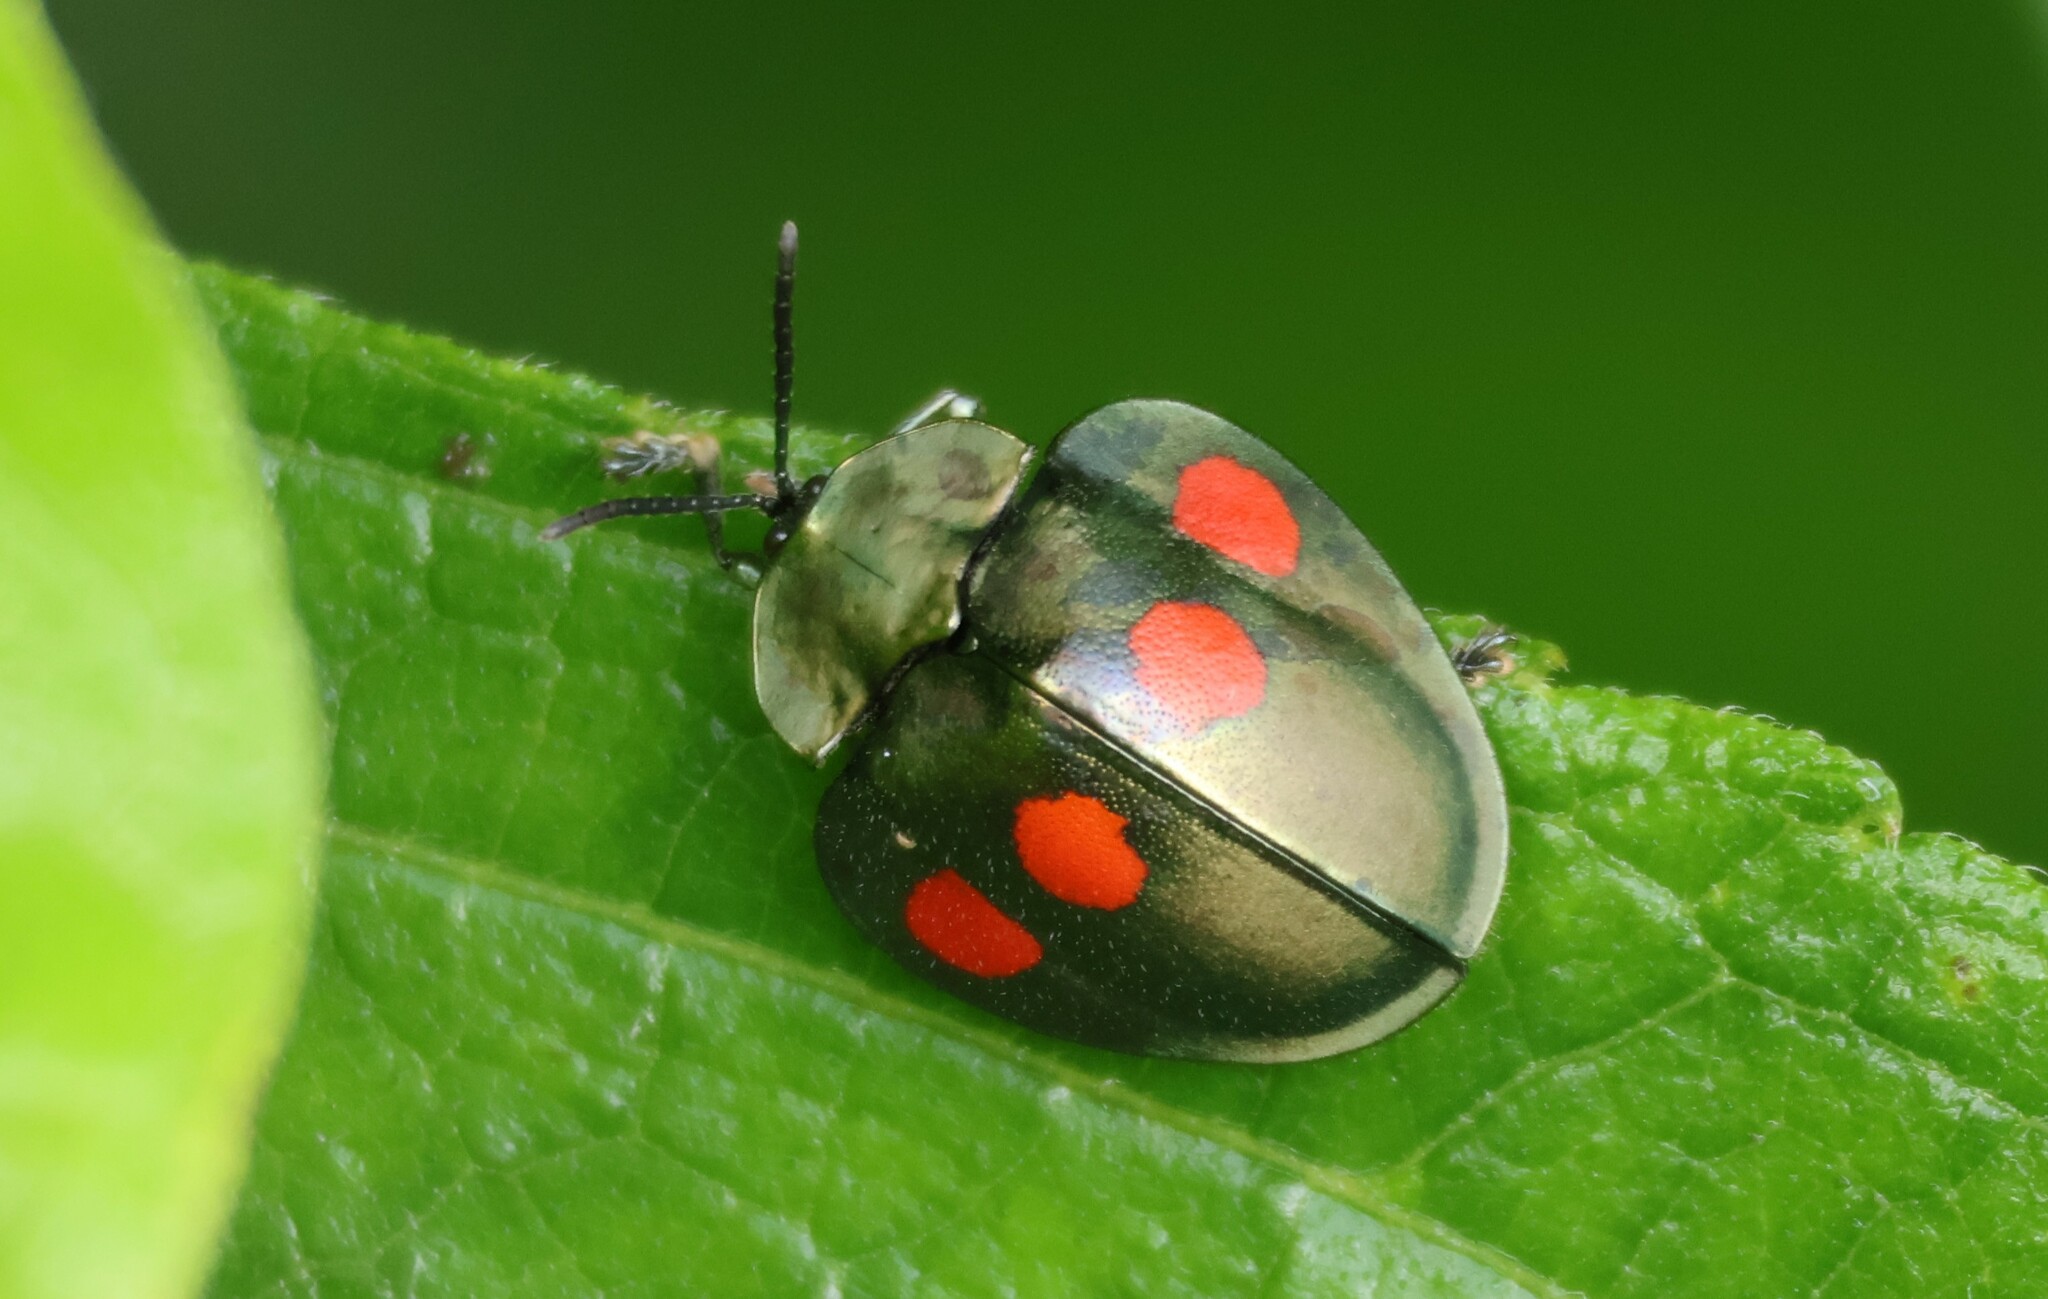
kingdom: Animalia
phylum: Arthropoda
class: Insecta
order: Coleoptera
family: Chrysomelidae
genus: Stolas
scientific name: Stolas lebasii
